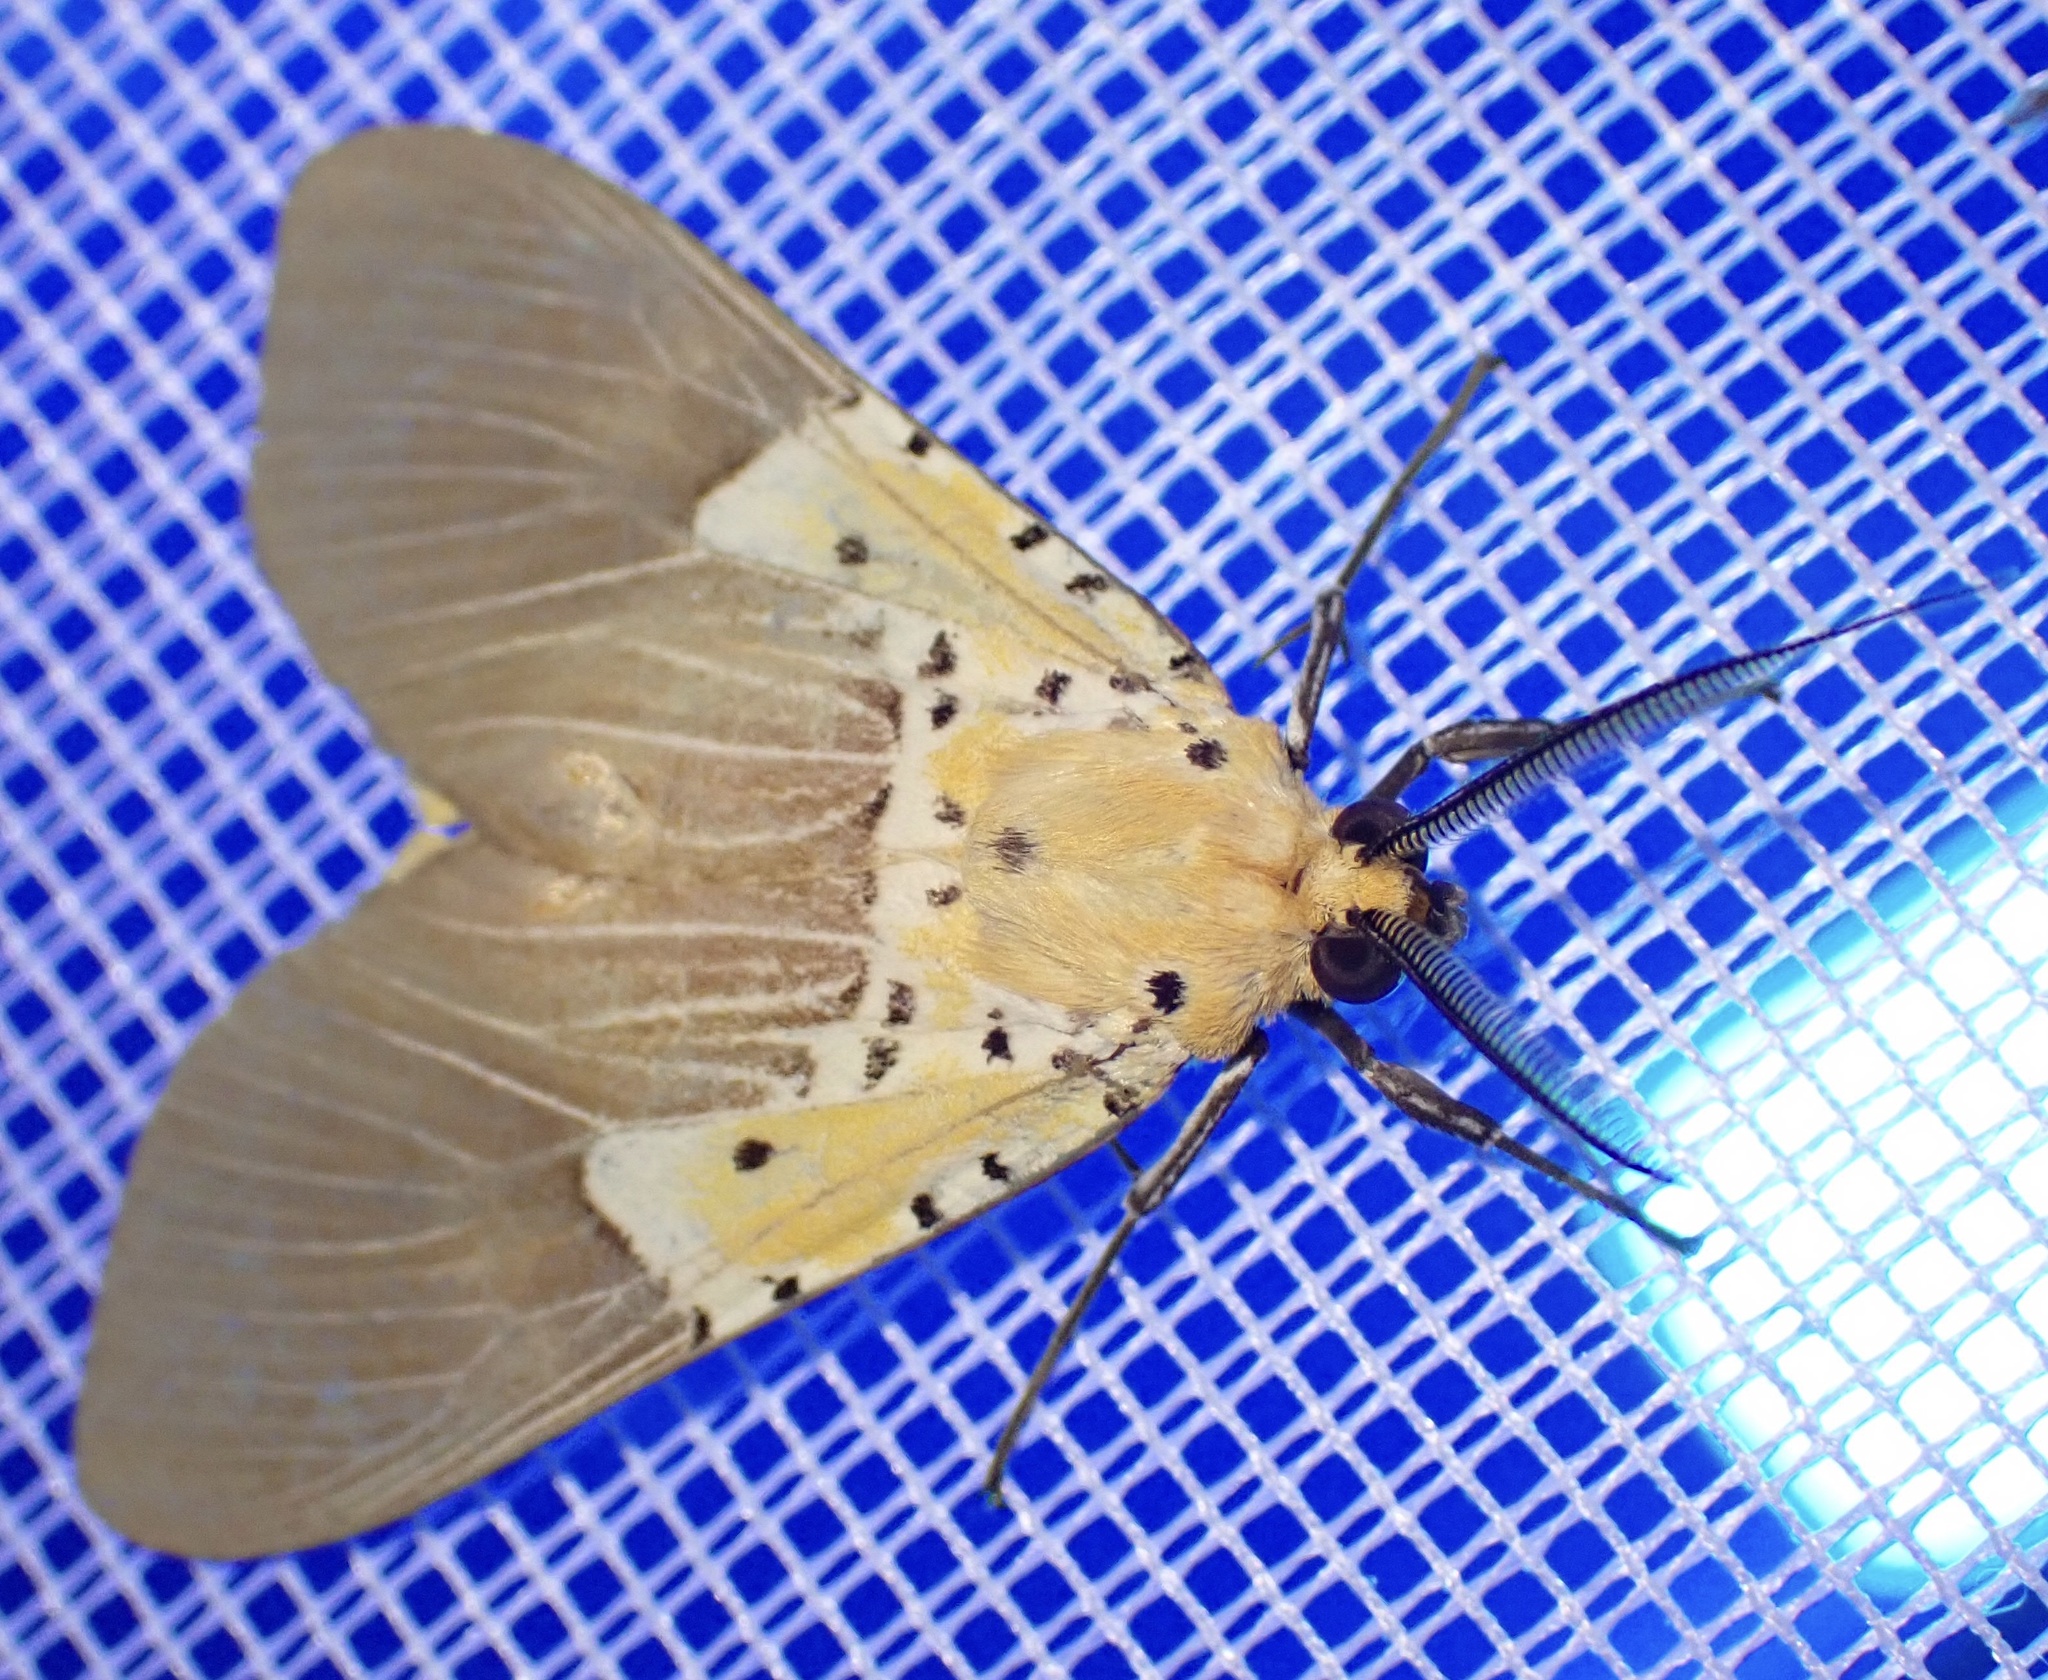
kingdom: Animalia
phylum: Arthropoda
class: Insecta
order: Lepidoptera
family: Erebidae
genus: Asota
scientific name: Asota speciosa
